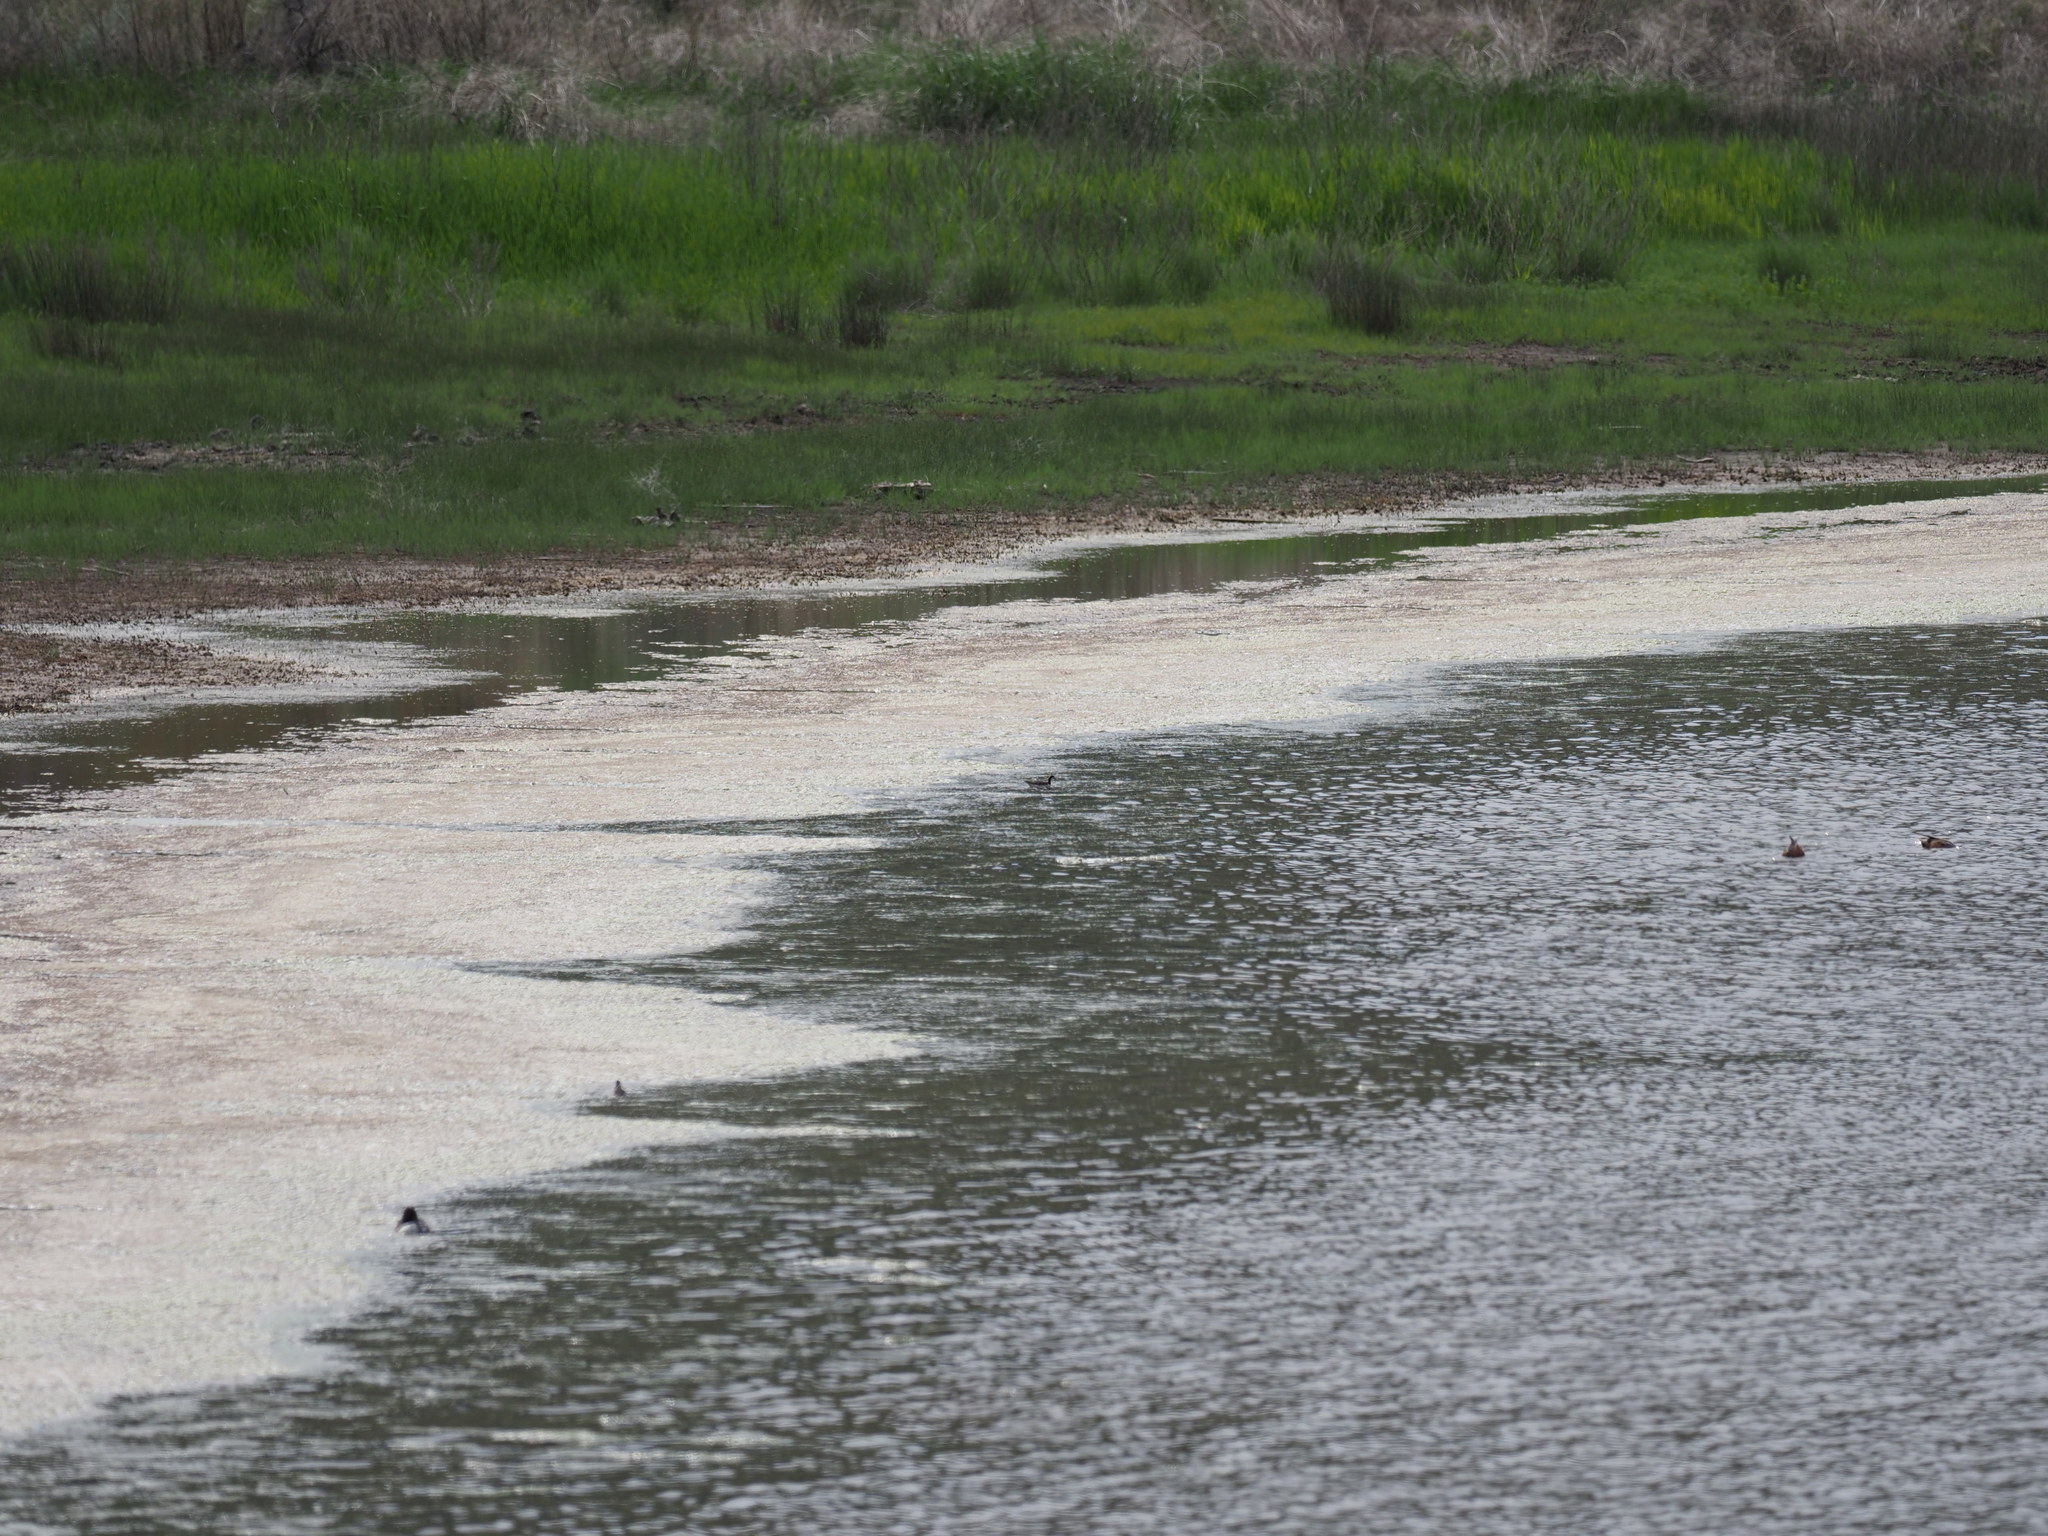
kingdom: Animalia
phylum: Chordata
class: Aves
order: Charadriiformes
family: Scolopacidae
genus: Phalaropus
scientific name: Phalaropus tricolor
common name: Wilson's phalarope
